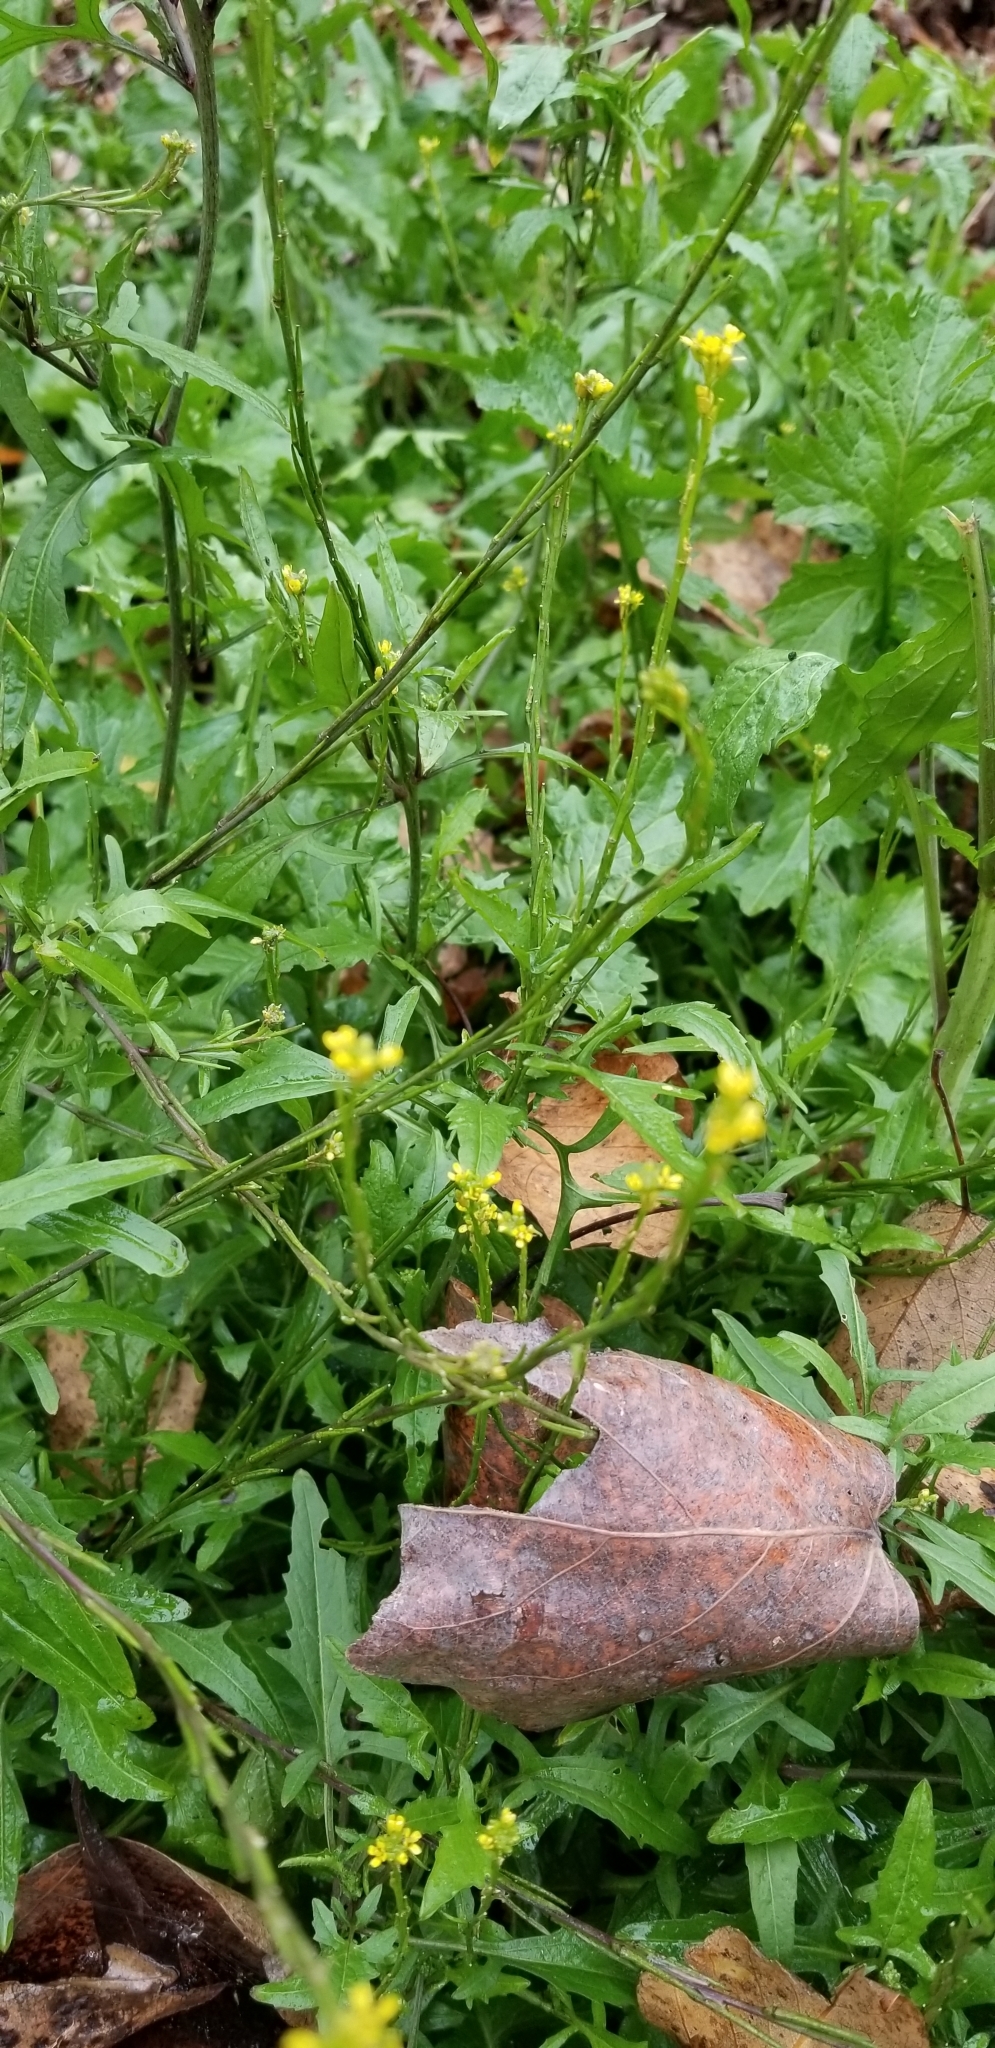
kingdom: Plantae
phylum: Tracheophyta
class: Magnoliopsida
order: Brassicales
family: Brassicaceae
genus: Sisymbrium
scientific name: Sisymbrium officinale
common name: Hedge mustard
